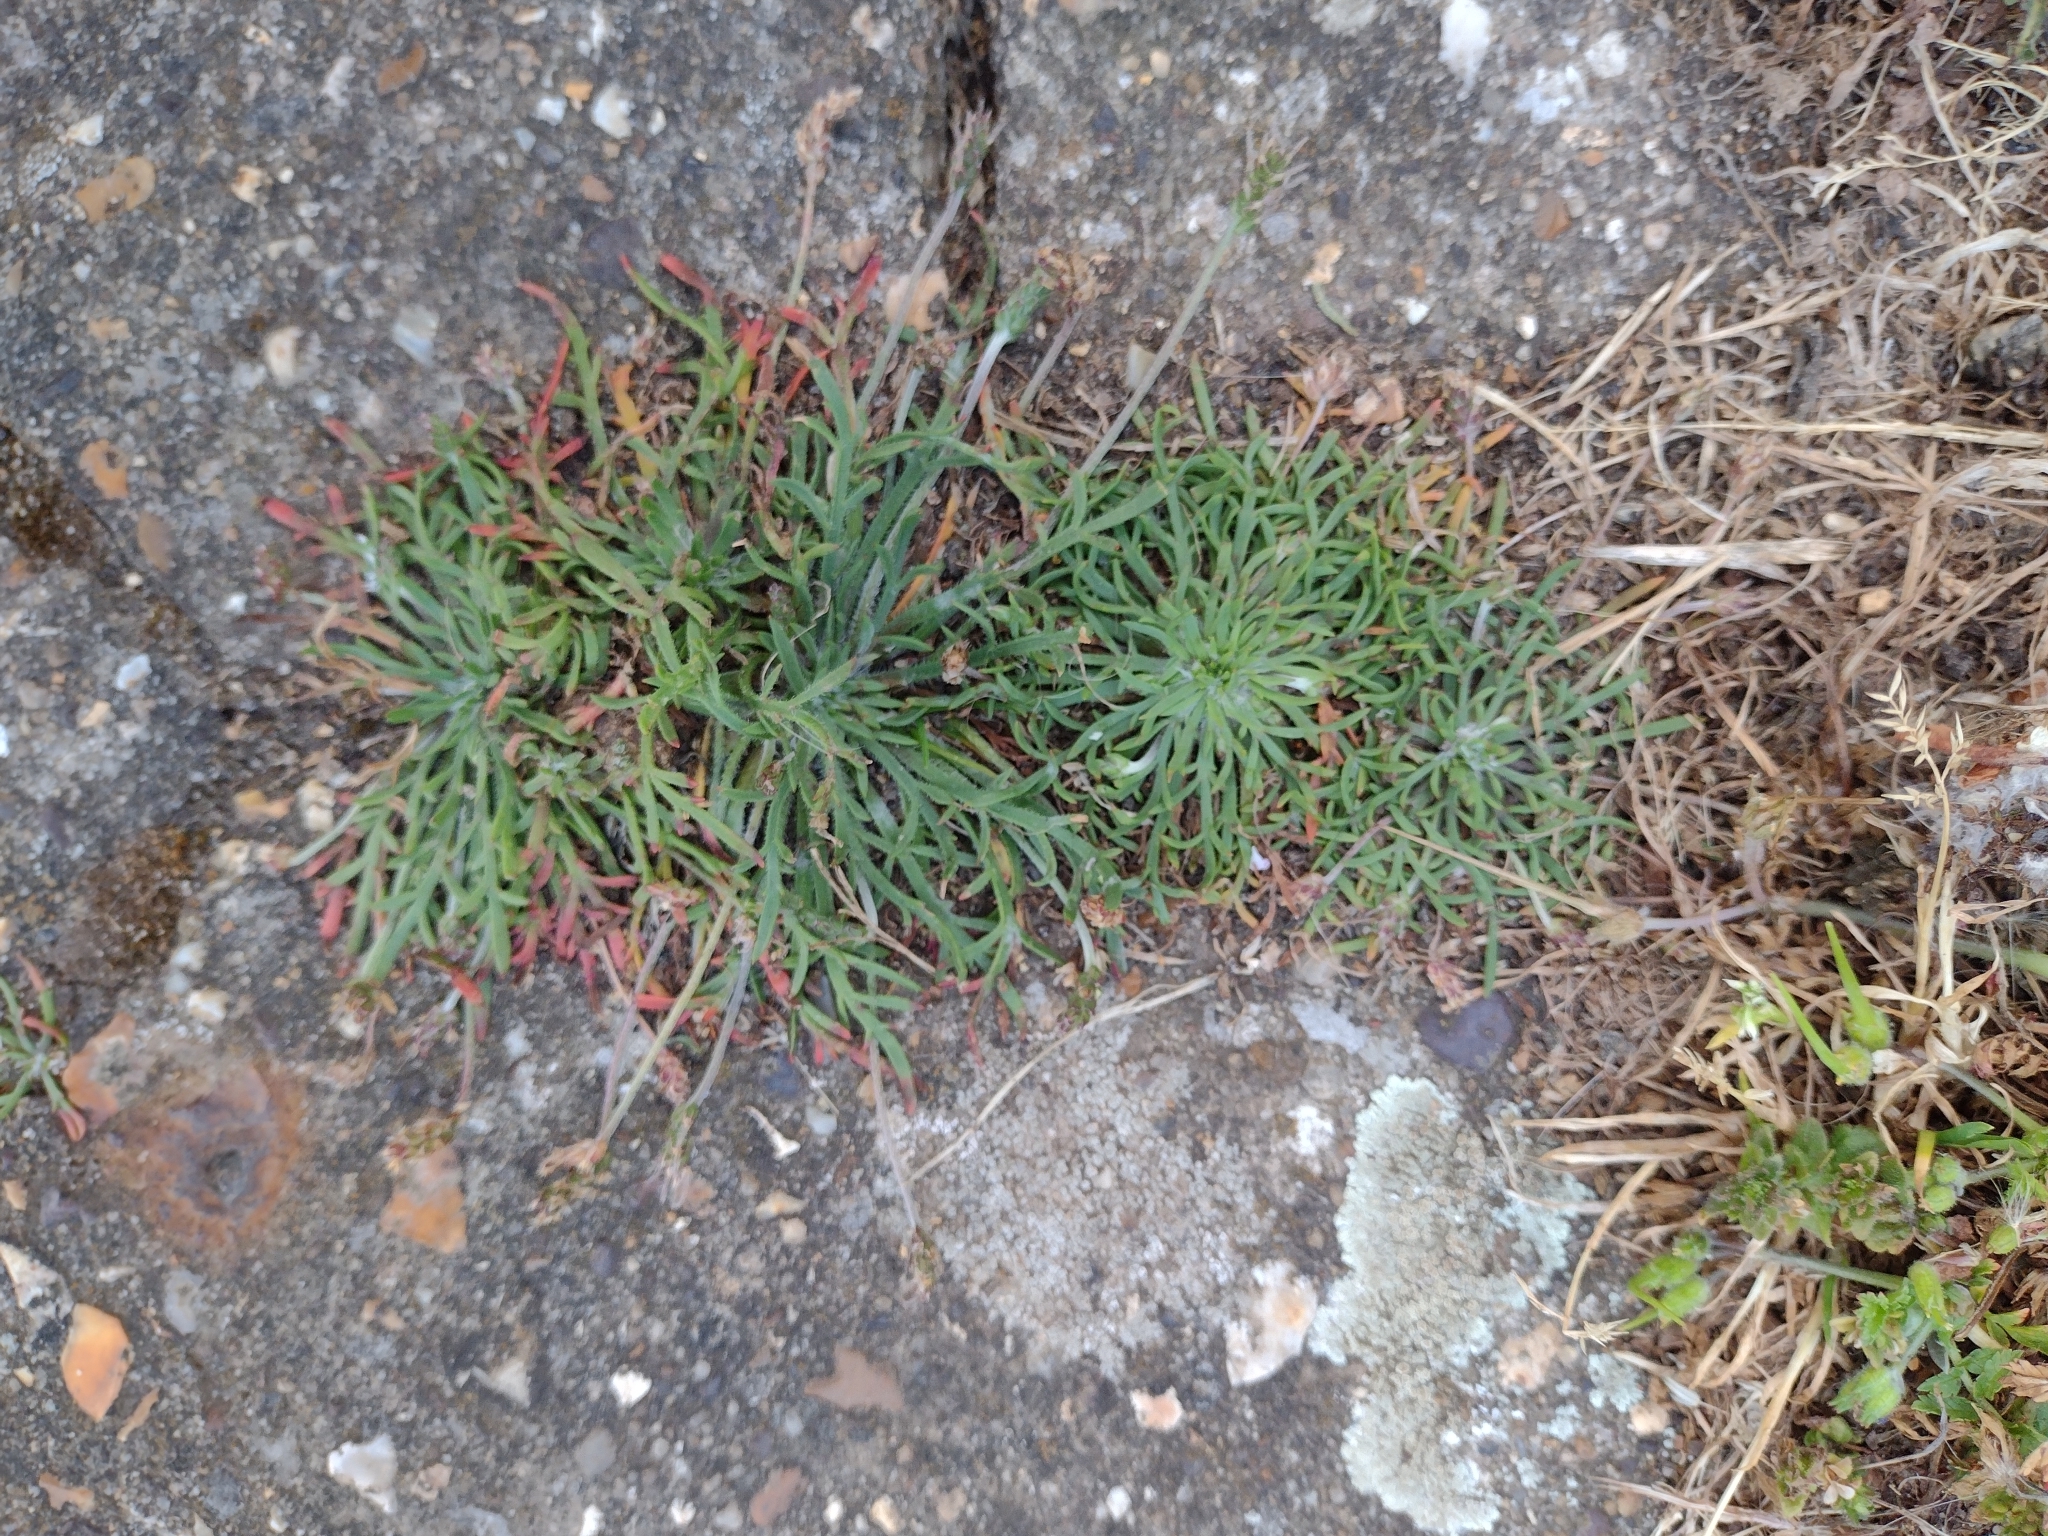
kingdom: Plantae
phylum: Tracheophyta
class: Magnoliopsida
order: Lamiales
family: Plantaginaceae
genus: Plantago
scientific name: Plantago coronopus
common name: Buck's-horn plantain
